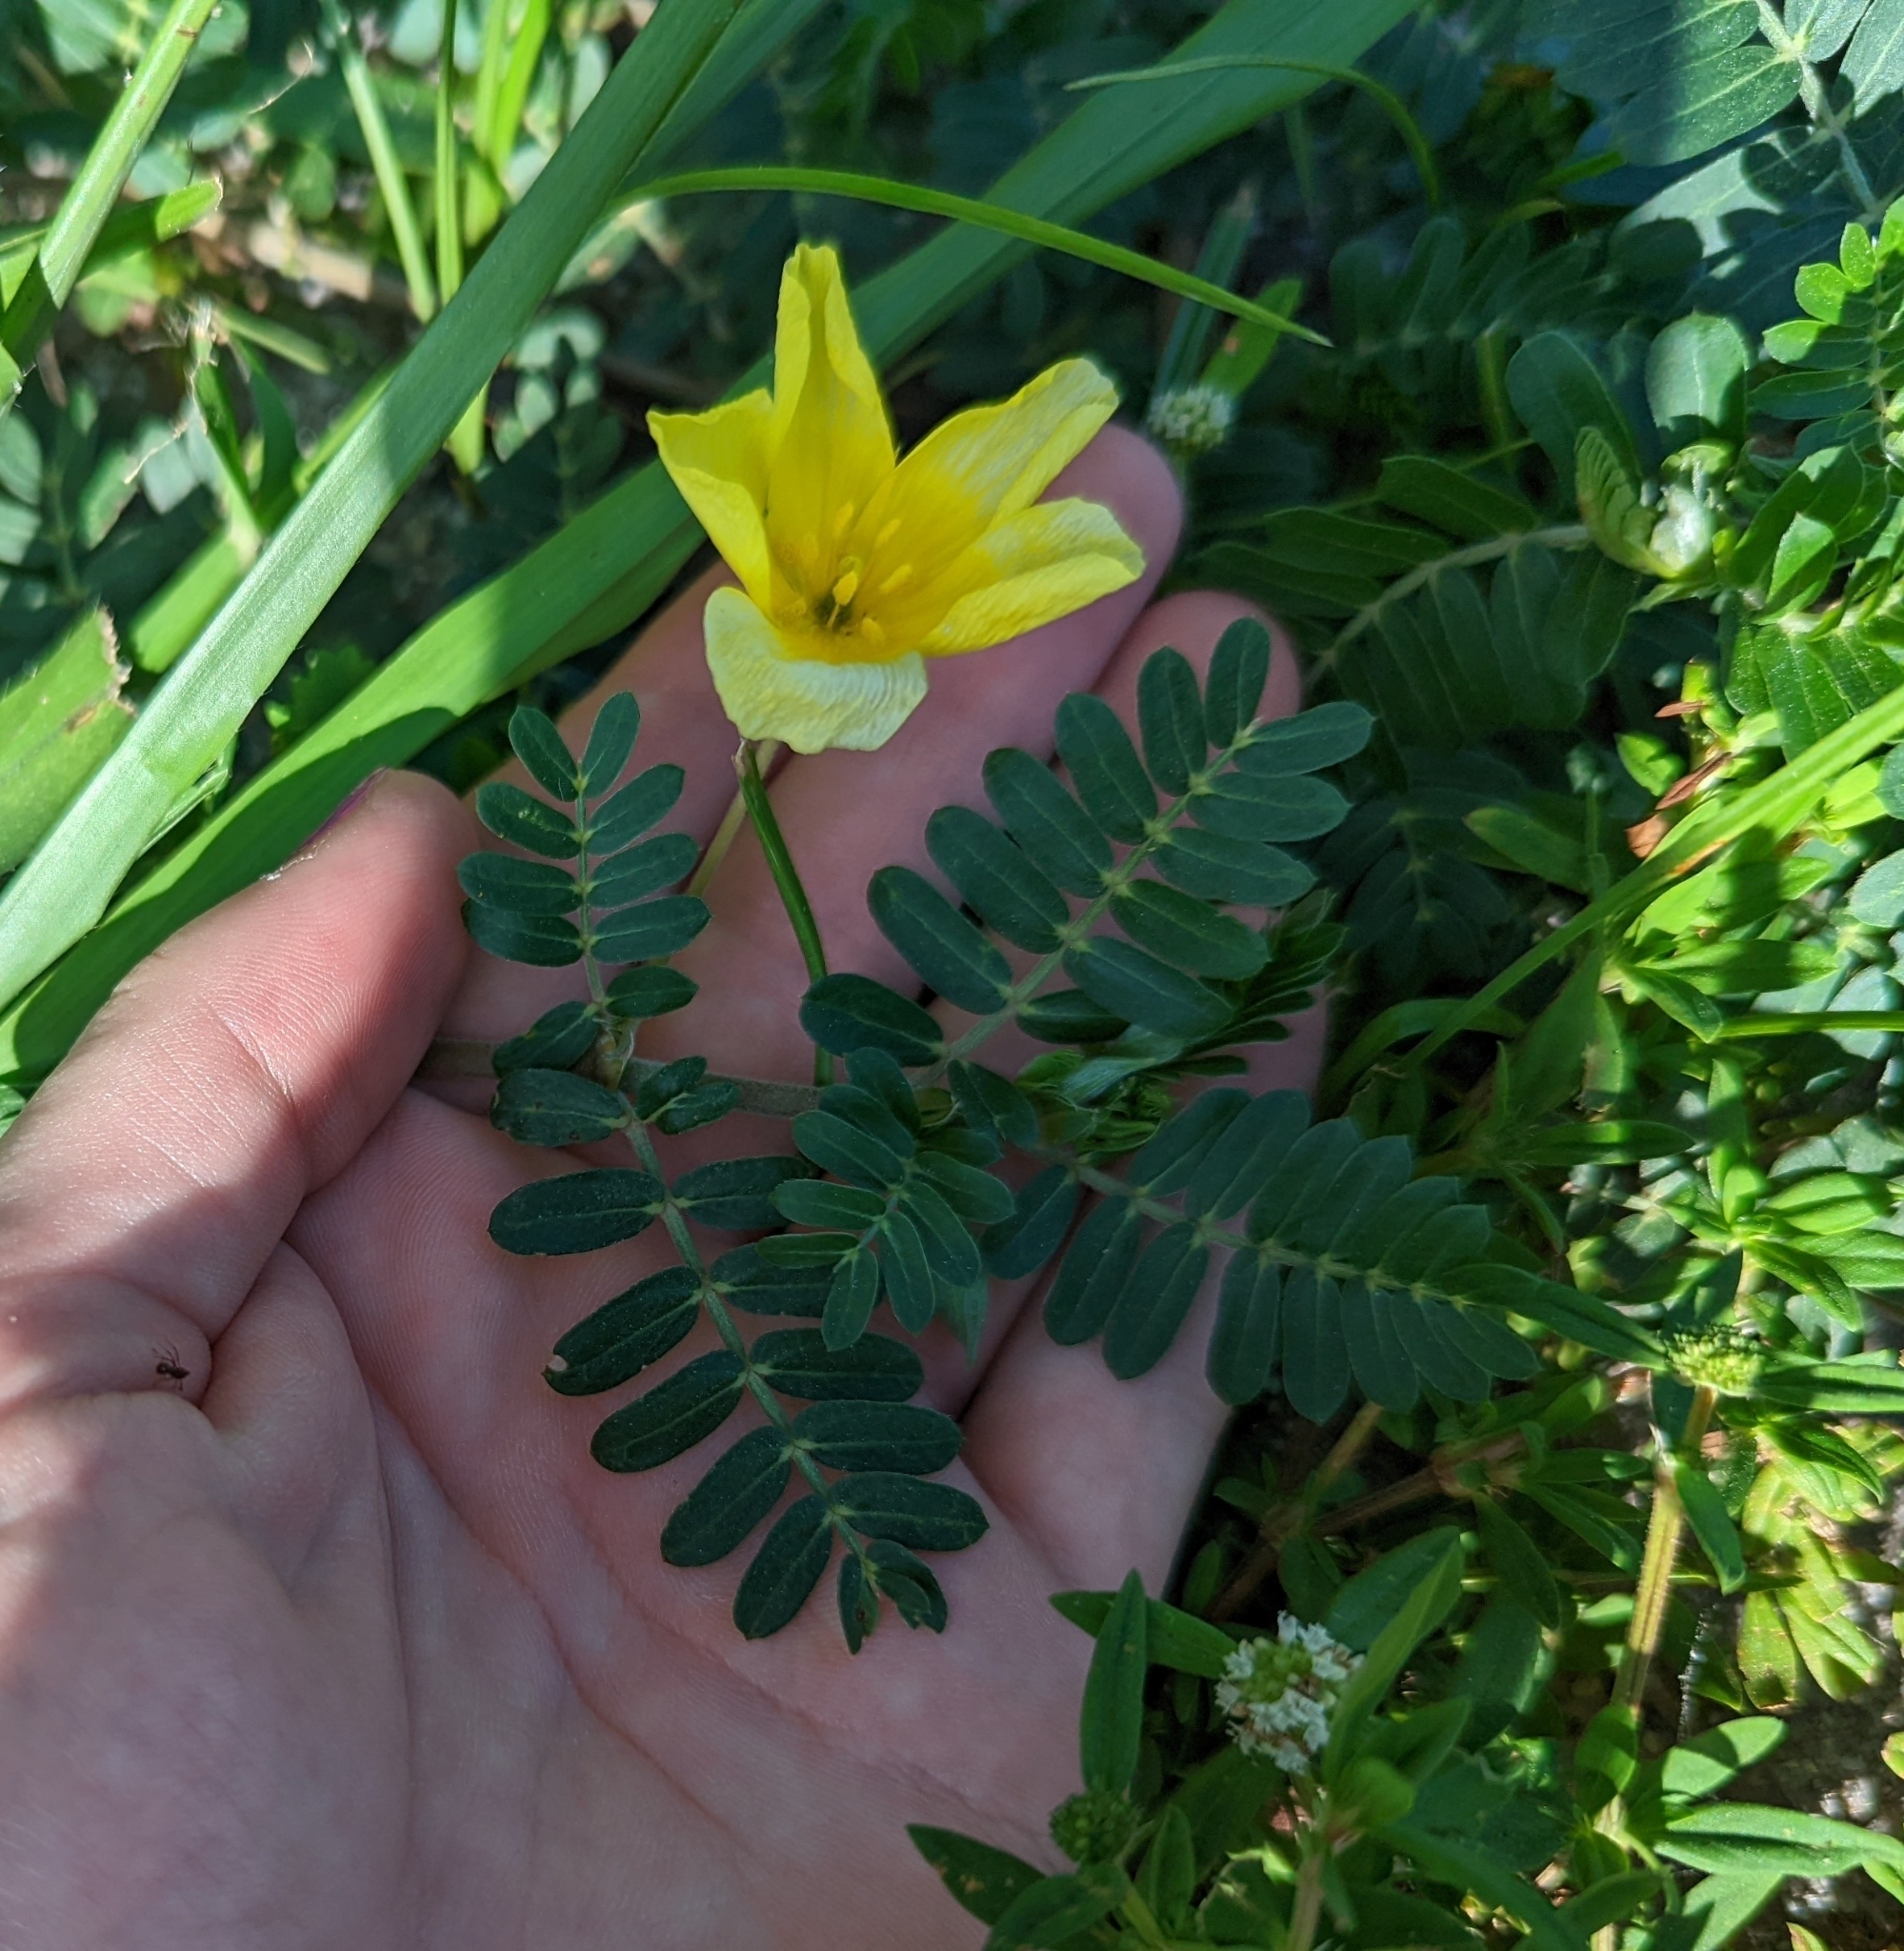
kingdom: Plantae
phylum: Tracheophyta
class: Magnoliopsida
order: Zygophyllales
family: Zygophyllaceae
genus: Tribulus
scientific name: Tribulus cistoides
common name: Jamaican feverplant
